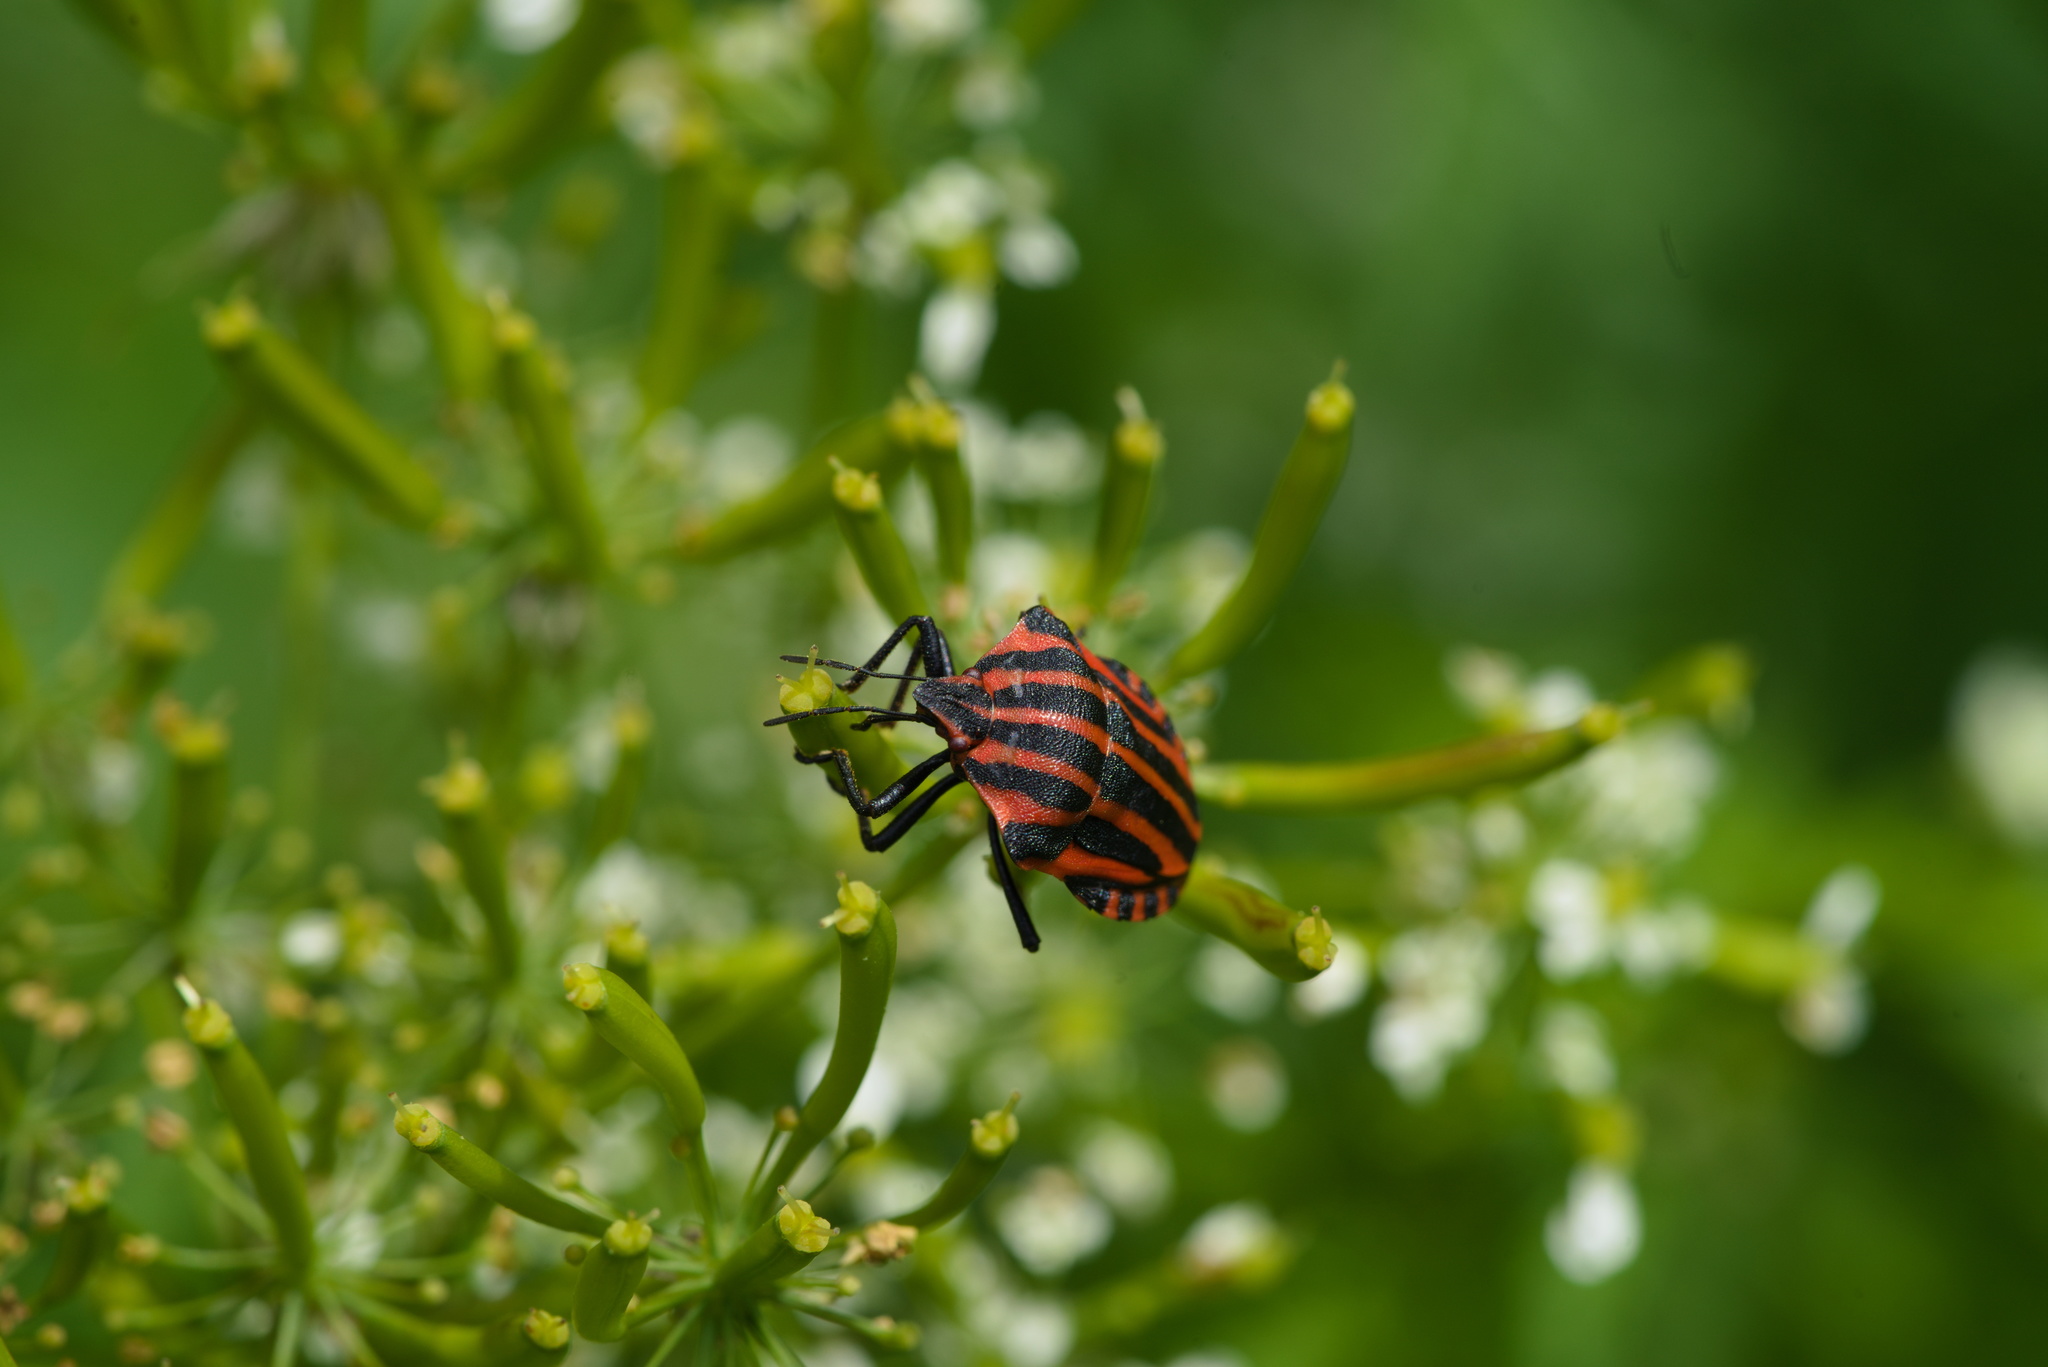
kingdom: Animalia
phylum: Arthropoda
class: Insecta
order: Hemiptera
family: Pentatomidae
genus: Graphosoma
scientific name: Graphosoma italicum
